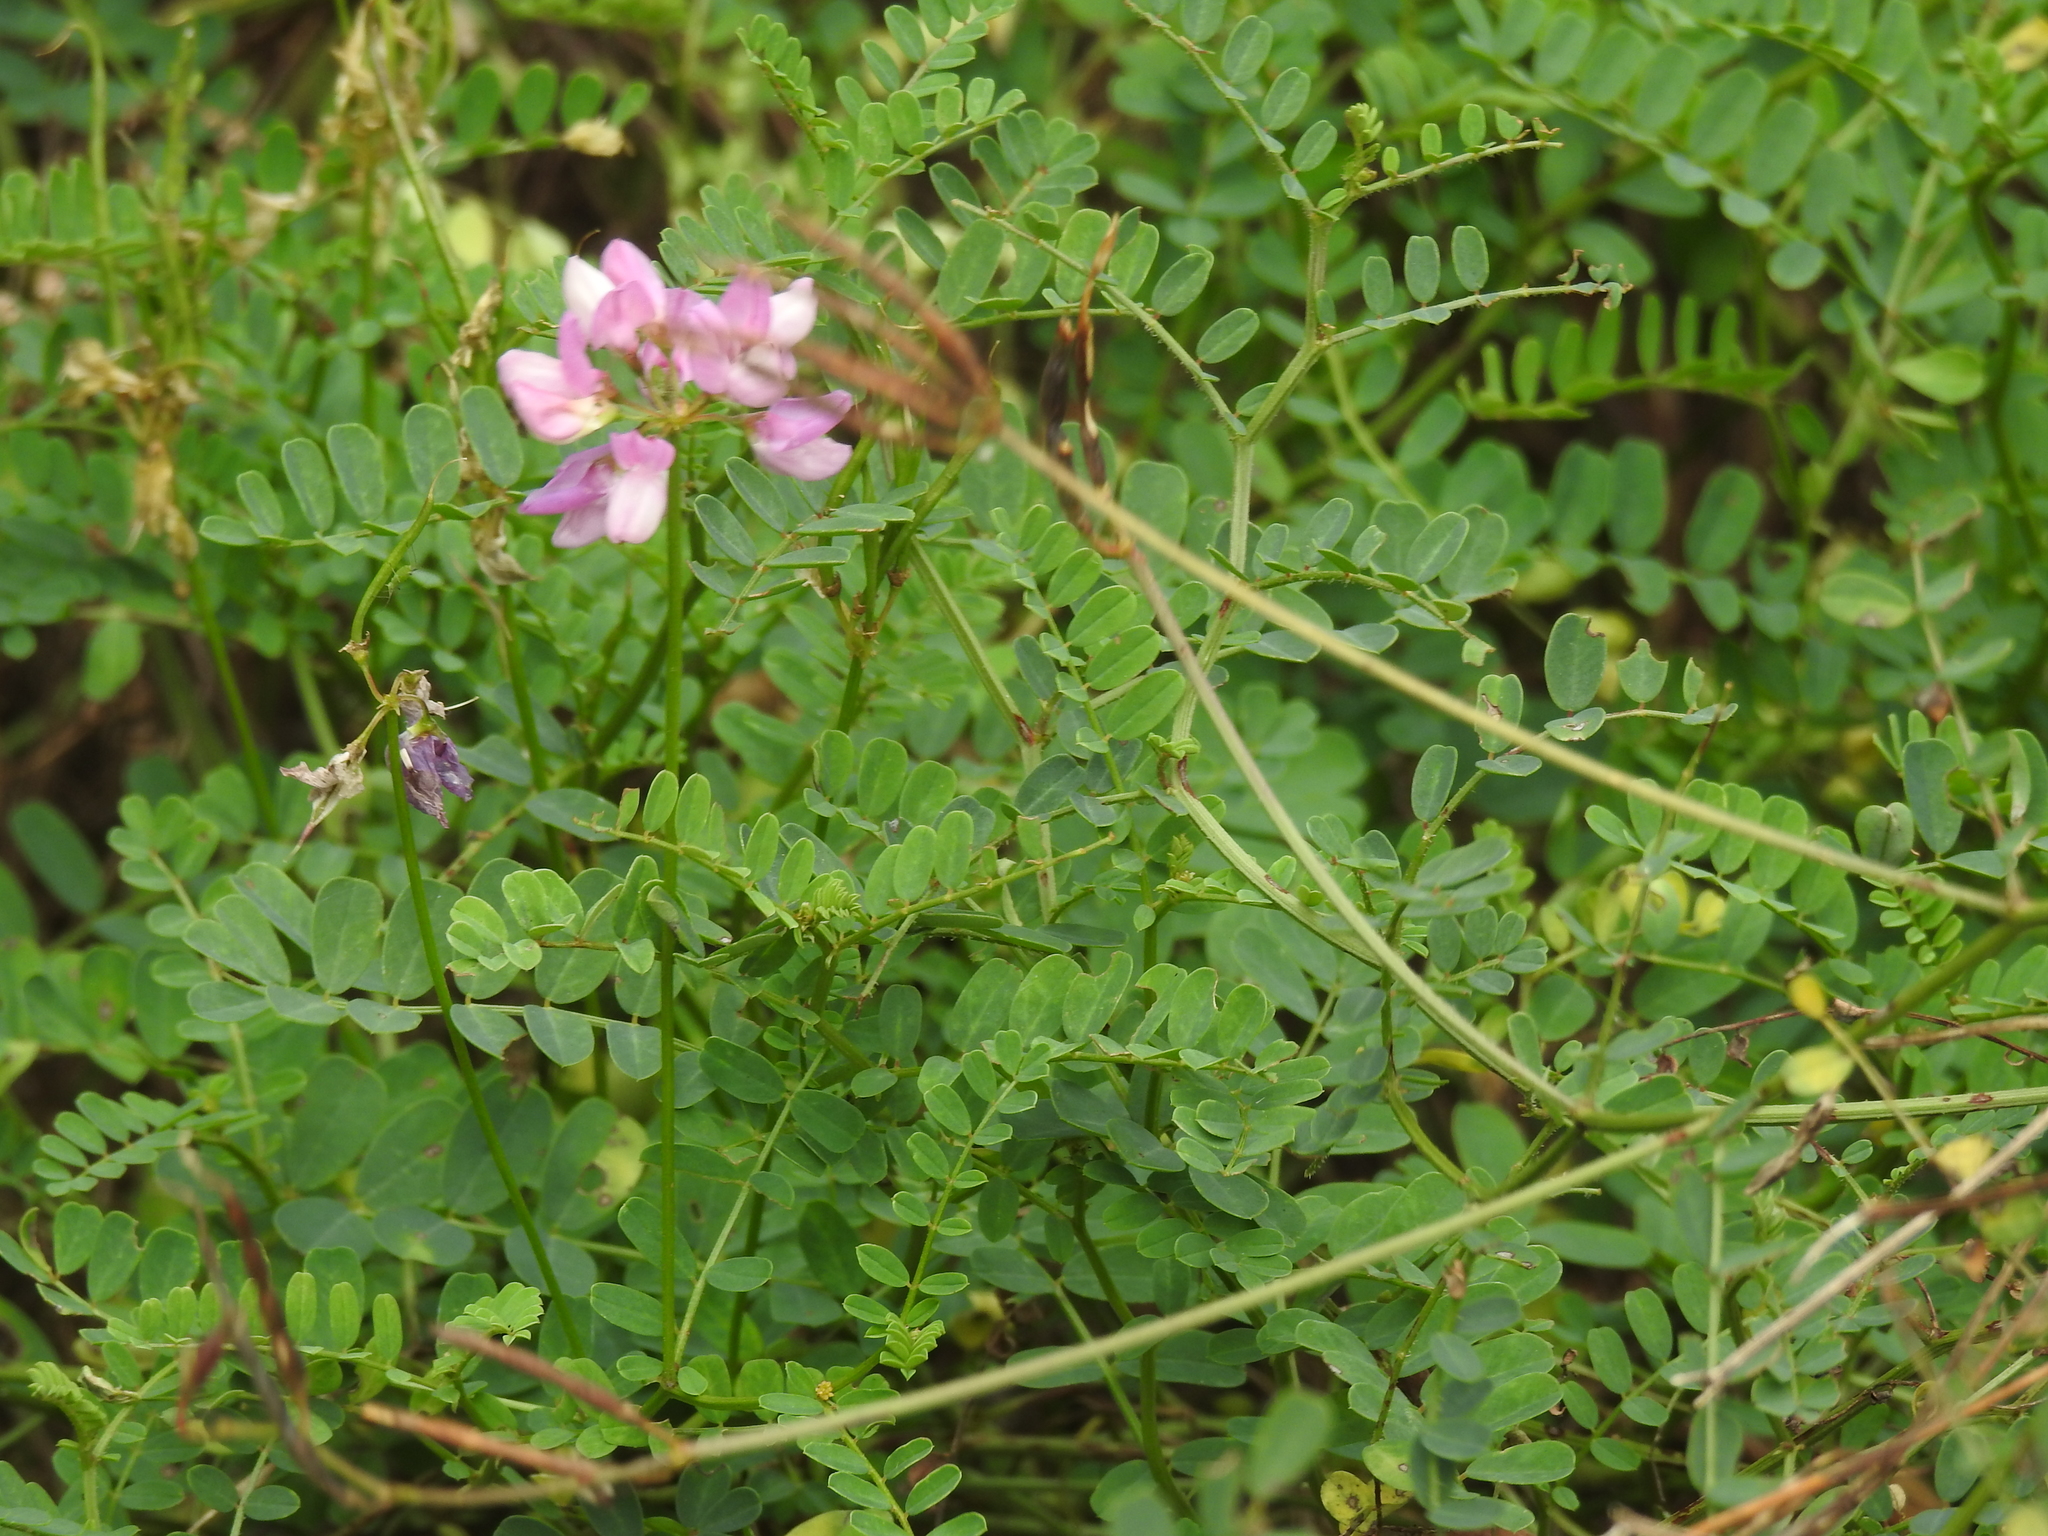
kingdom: Plantae
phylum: Tracheophyta
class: Magnoliopsida
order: Fabales
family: Fabaceae
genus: Coronilla
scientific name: Coronilla varia
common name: Crownvetch
